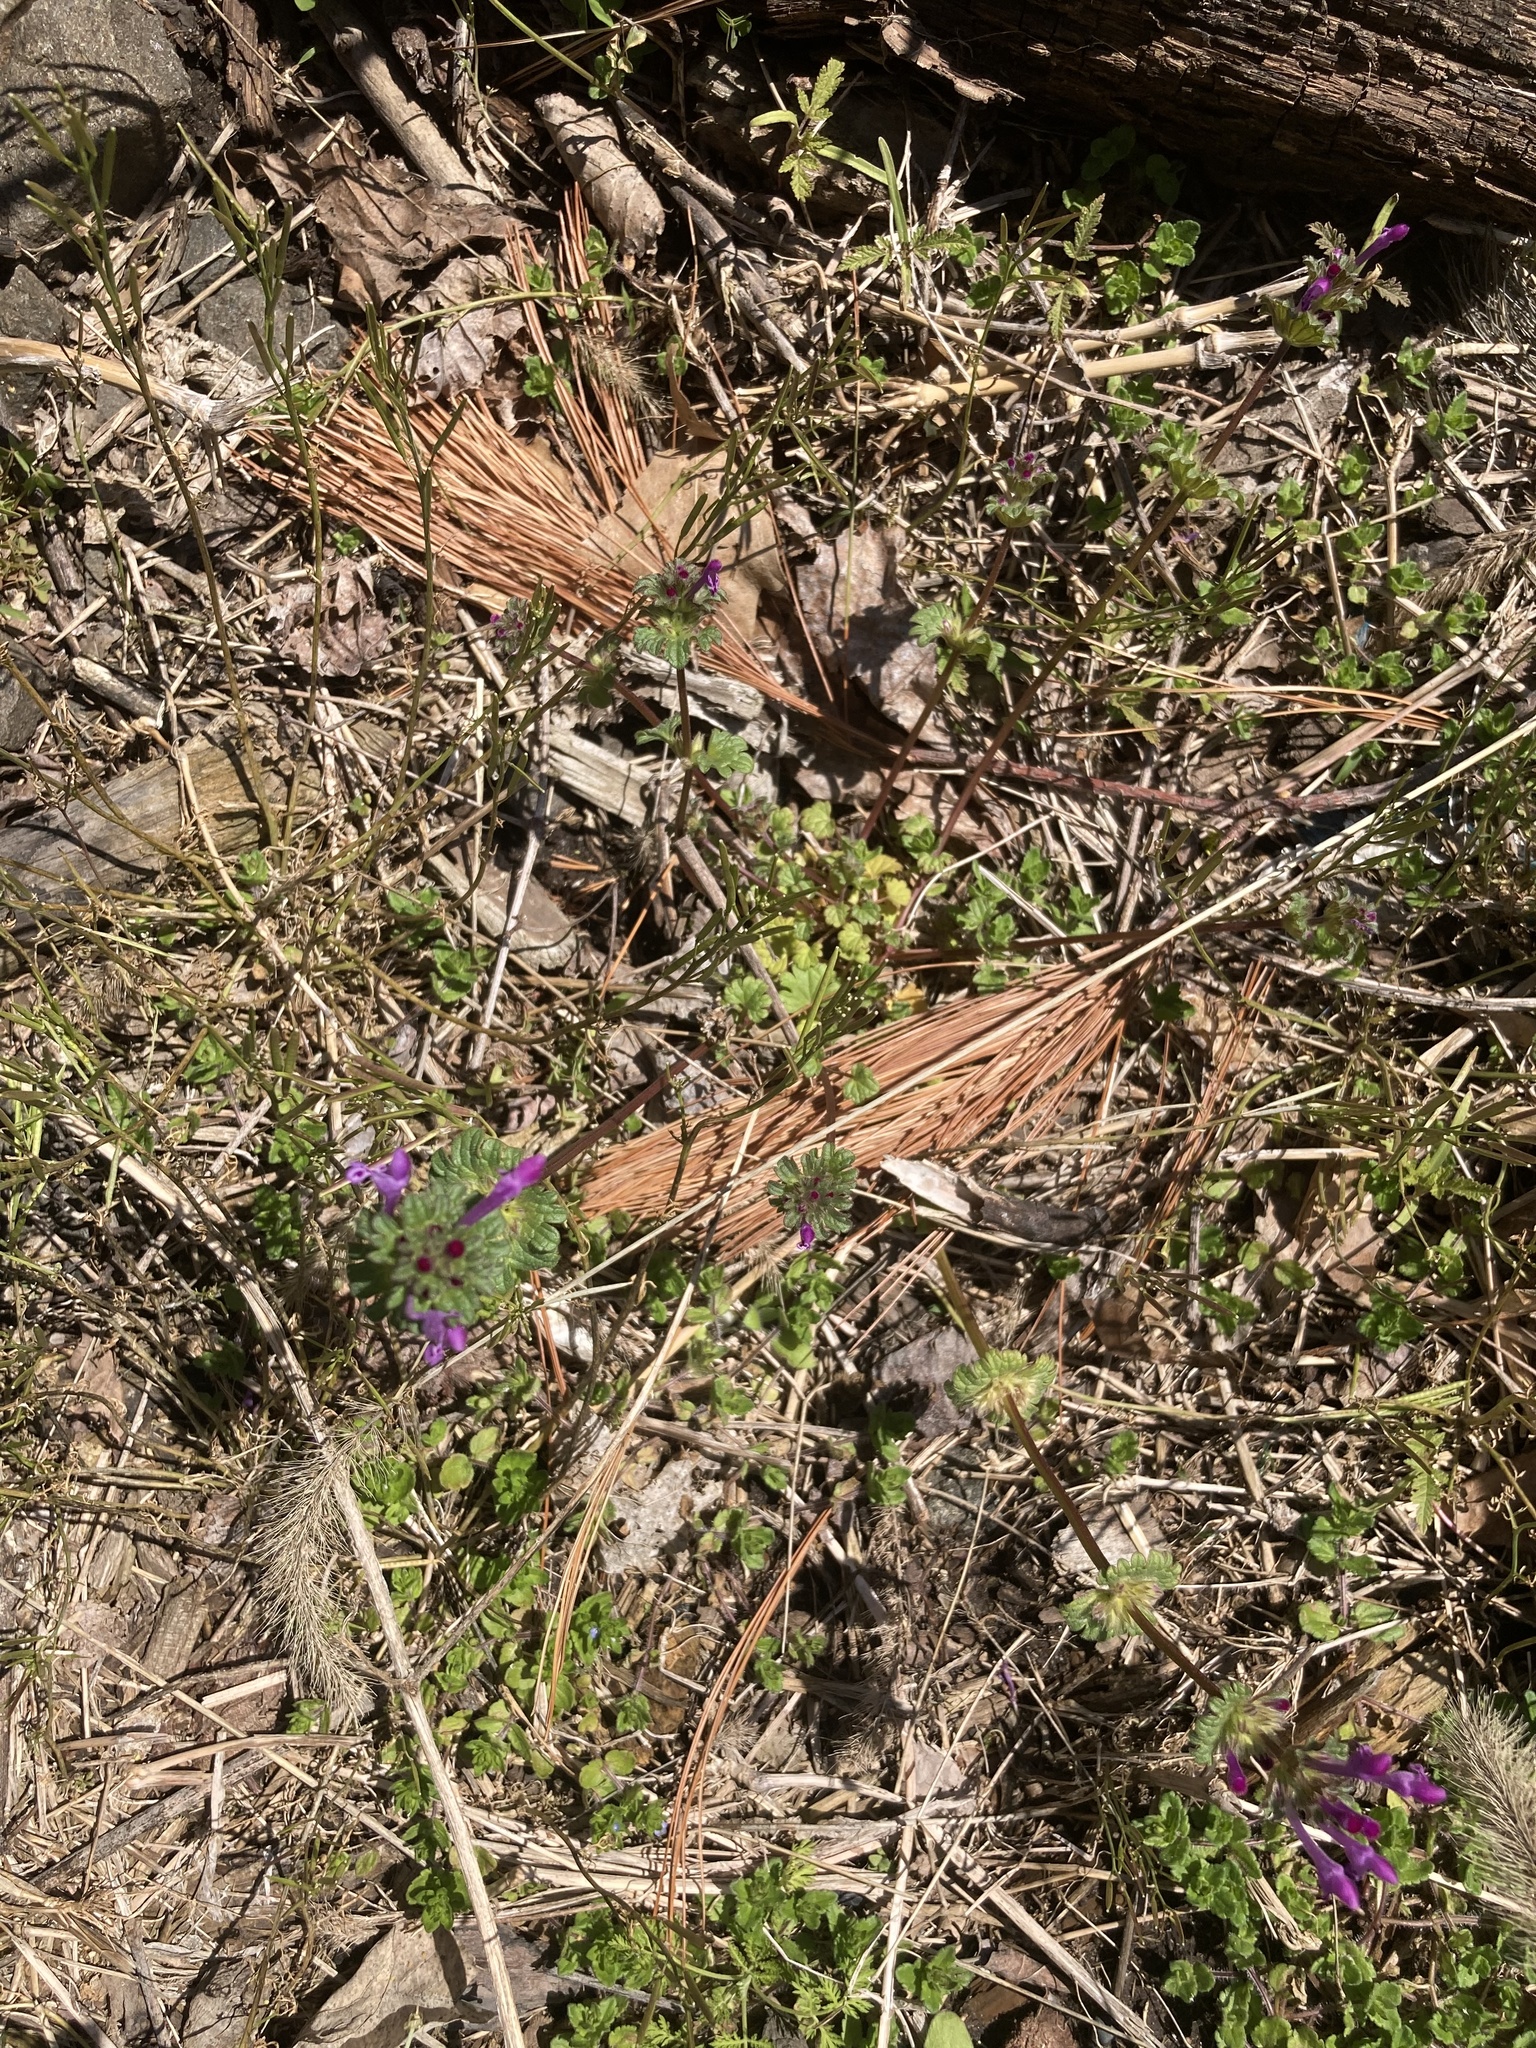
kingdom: Plantae
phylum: Tracheophyta
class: Magnoliopsida
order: Lamiales
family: Lamiaceae
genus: Lamium
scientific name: Lamium amplexicaule
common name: Henbit dead-nettle
